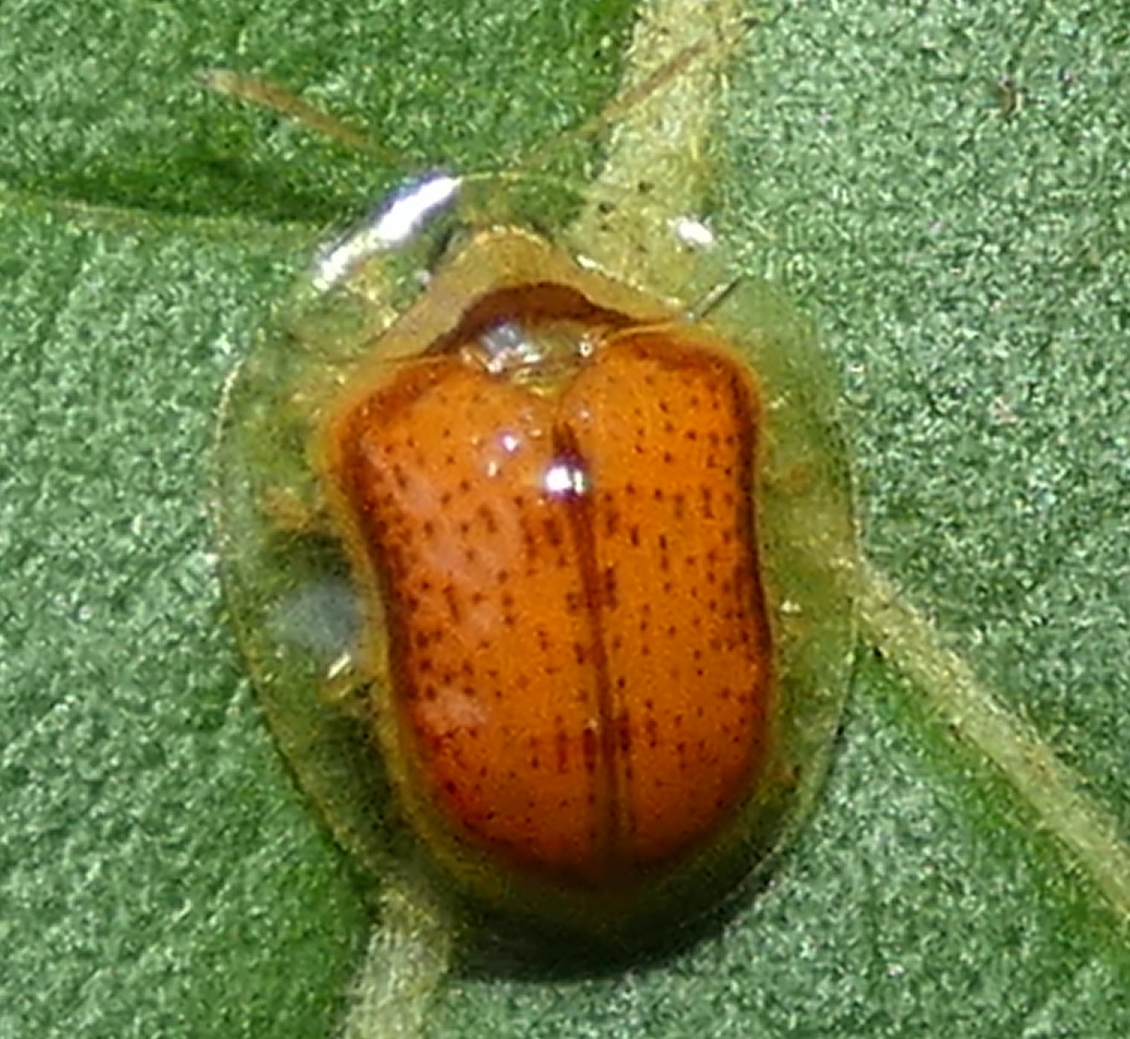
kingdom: Animalia
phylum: Arthropoda
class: Insecta
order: Coleoptera
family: Chrysomelidae
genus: Microctenochira
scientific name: Microctenochira quadrata
